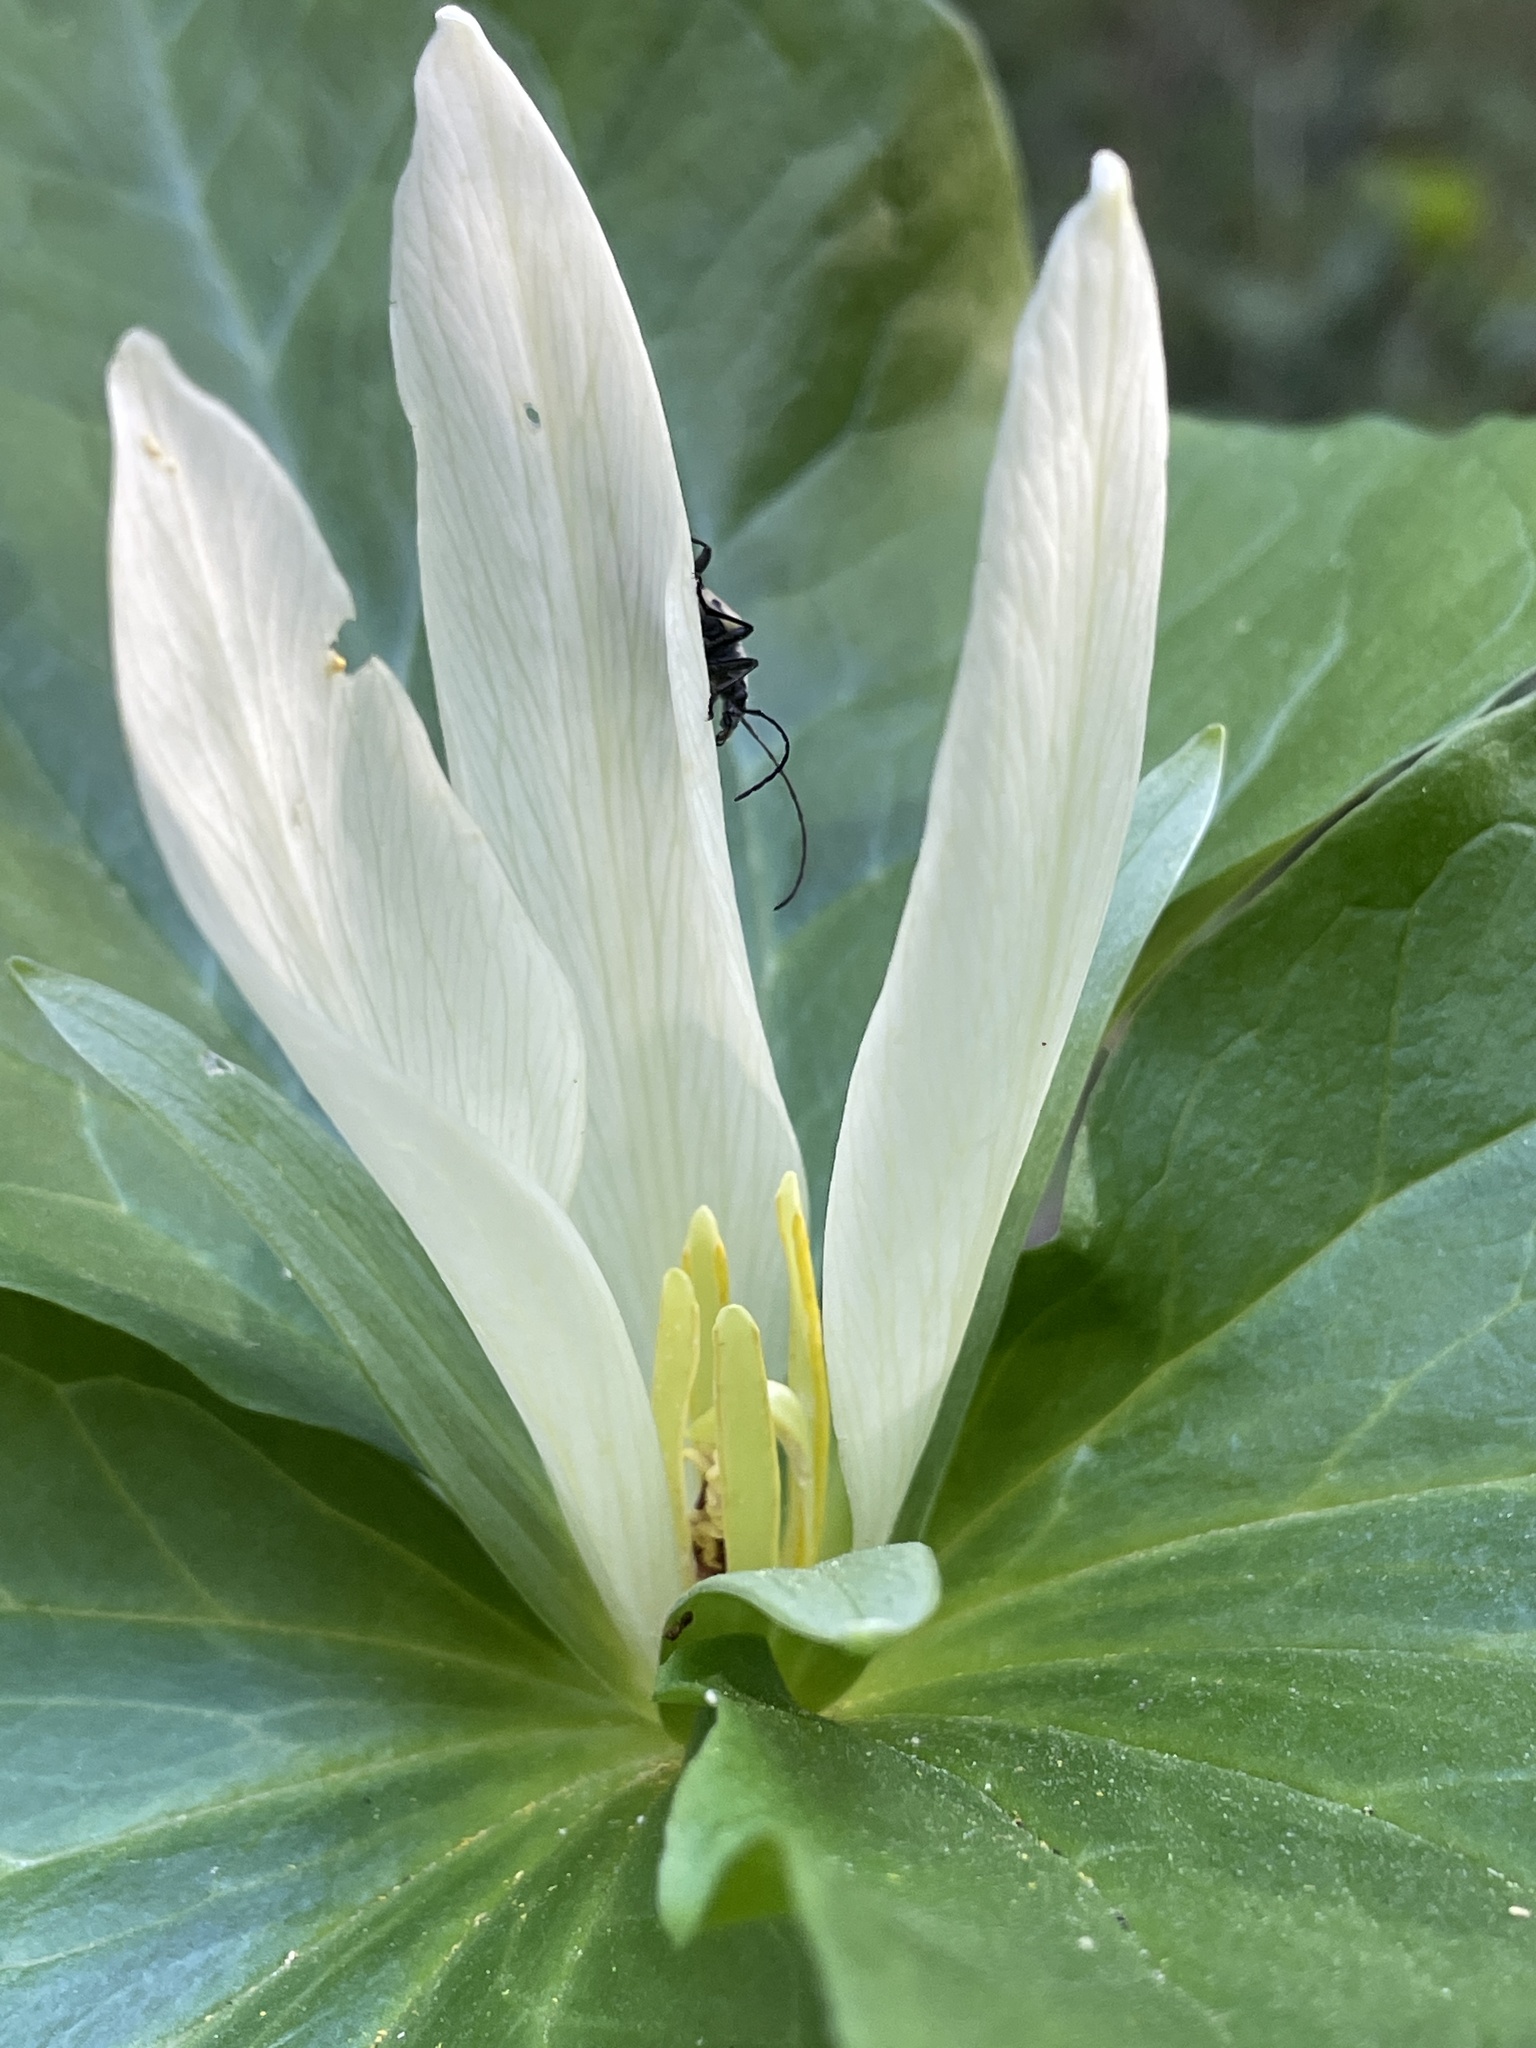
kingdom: Plantae
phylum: Tracheophyta
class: Liliopsida
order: Liliales
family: Melanthiaceae
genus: Trillium
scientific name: Trillium albidum
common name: Freeman's trillium
